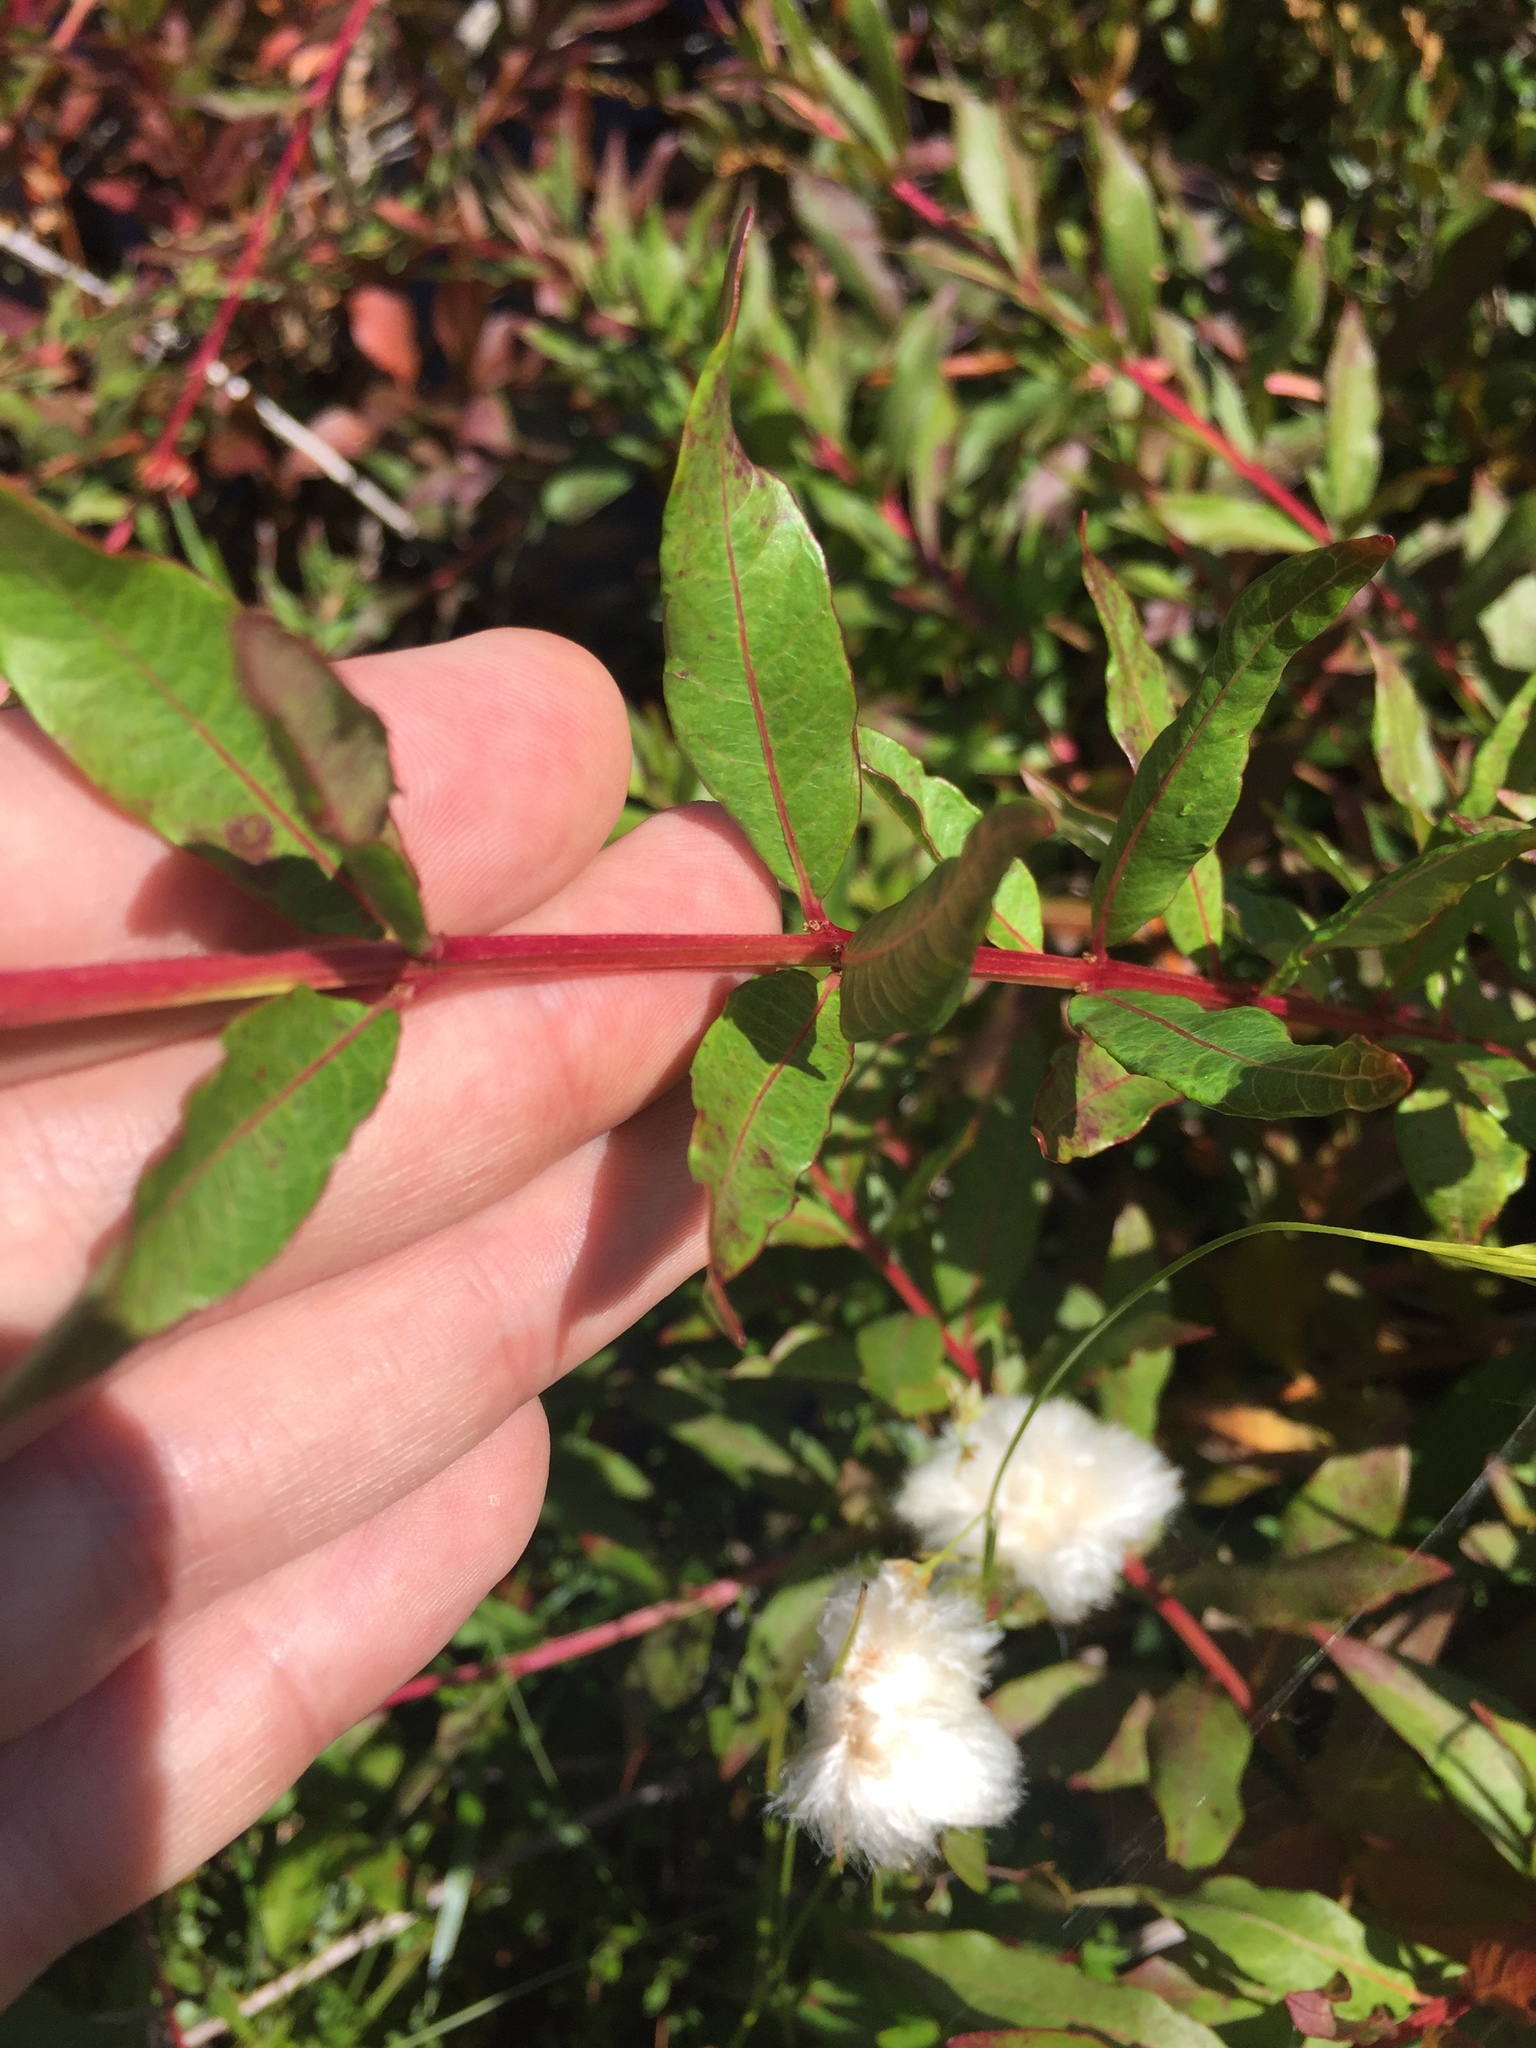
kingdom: Plantae
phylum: Tracheophyta
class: Magnoliopsida
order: Myrtales
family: Lythraceae
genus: Decodon
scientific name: Decodon verticillatus
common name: Hairy swamp loosestrife
